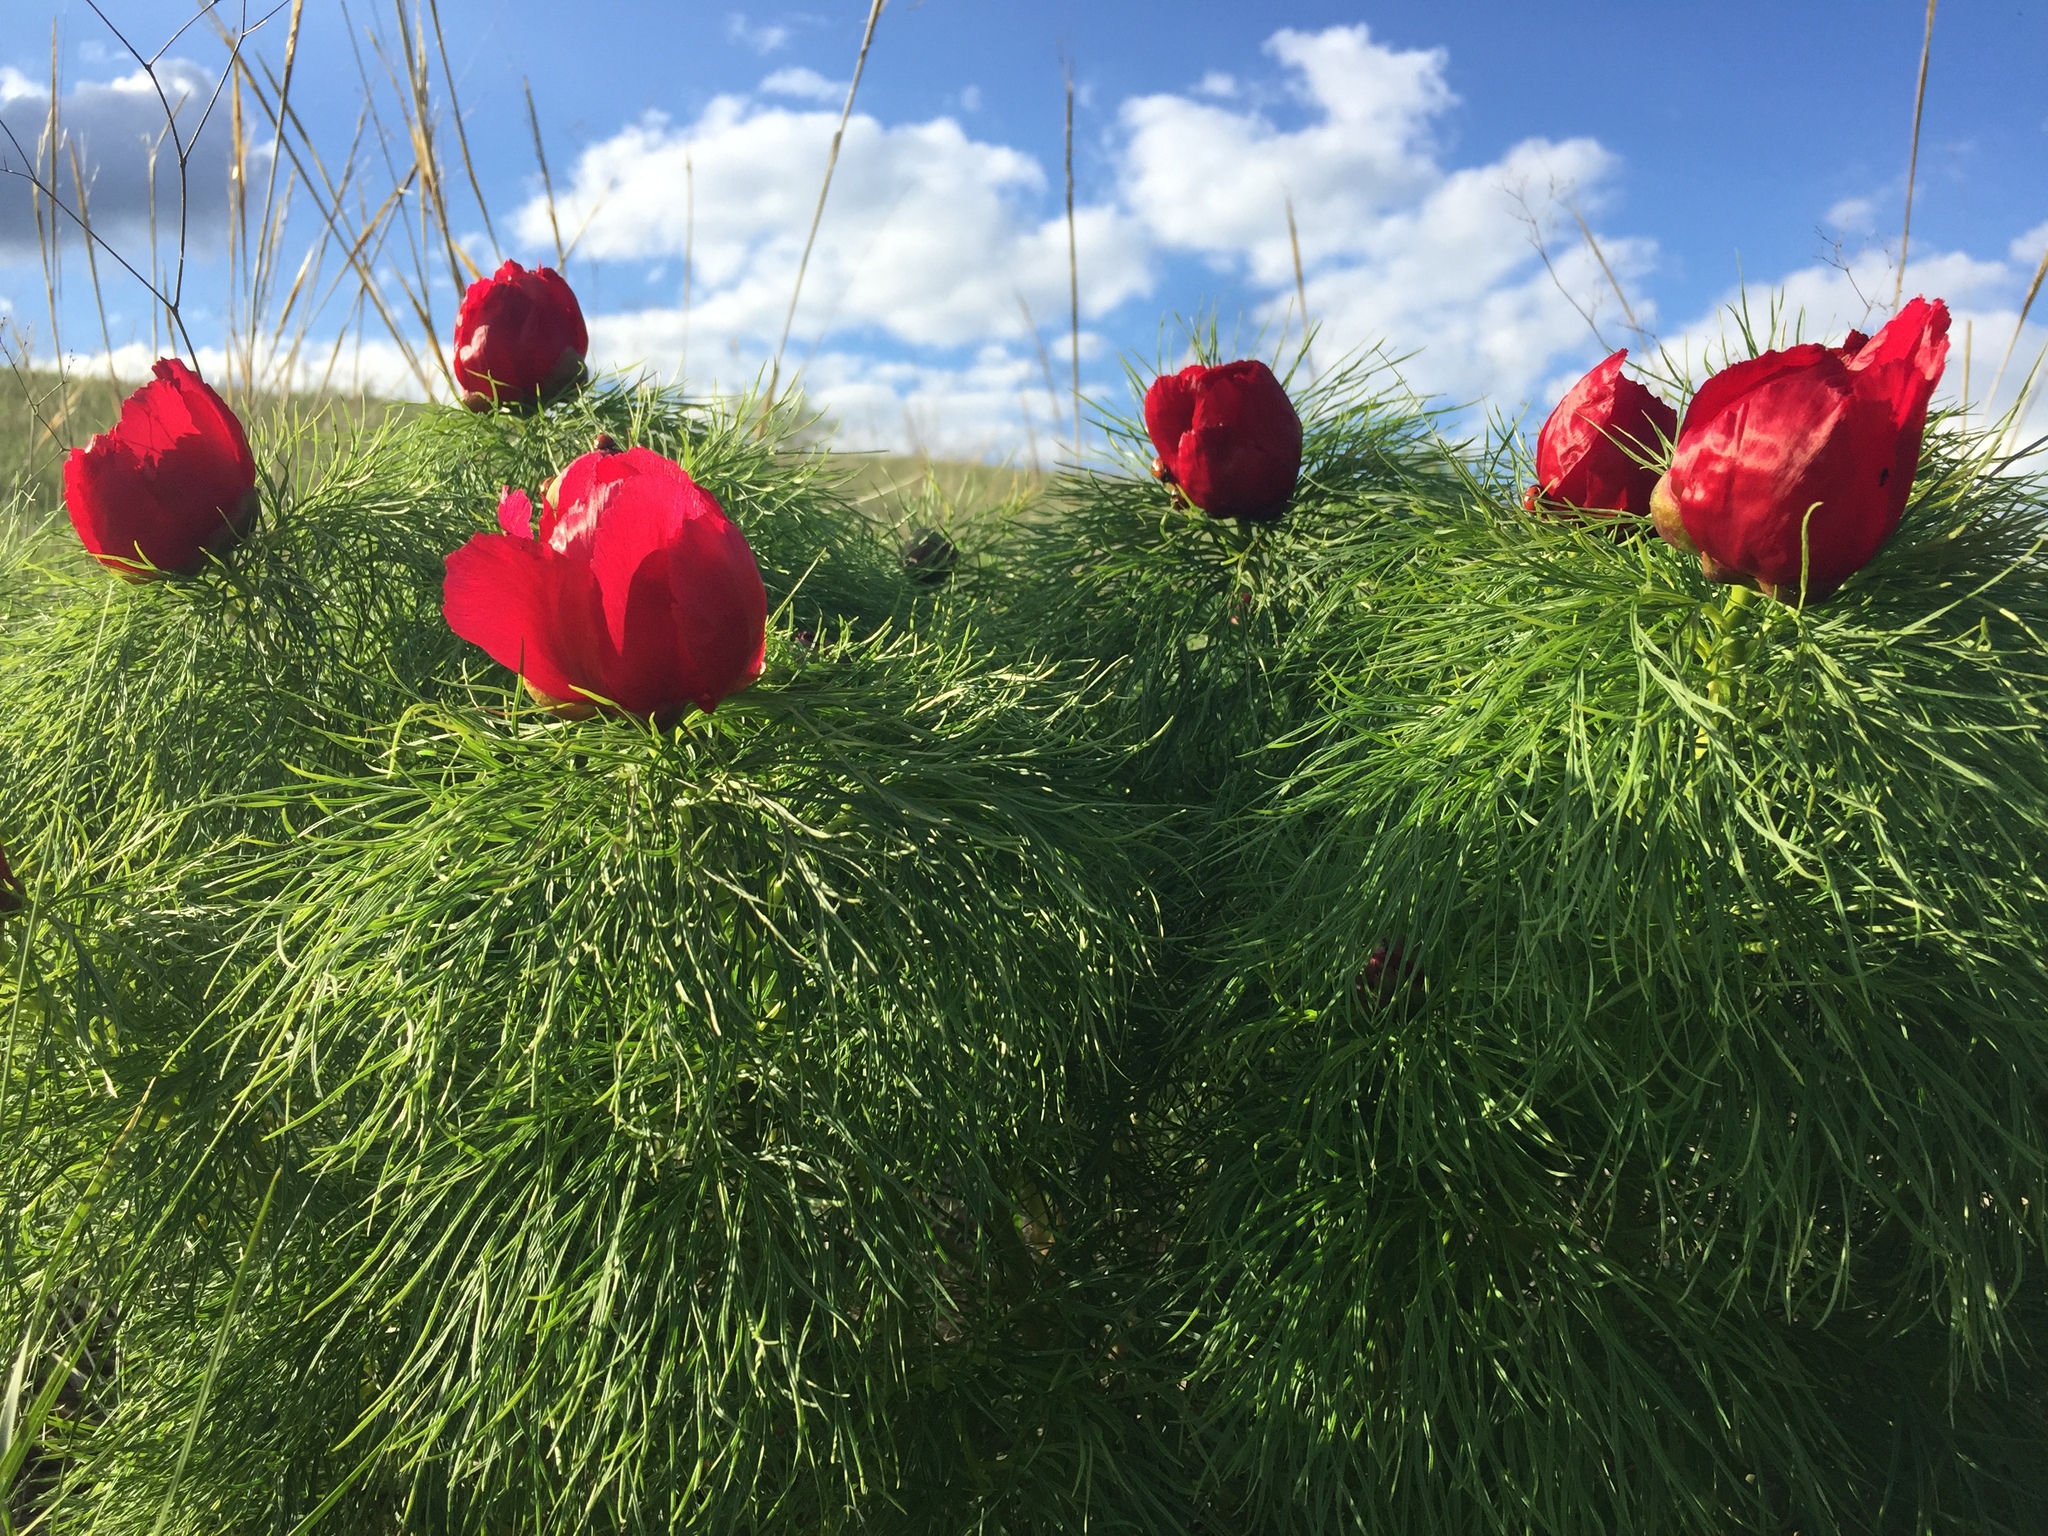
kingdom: Plantae
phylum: Tracheophyta
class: Magnoliopsida
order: Saxifragales
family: Paeoniaceae
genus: Paeonia
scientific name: Paeonia tenuifolia
